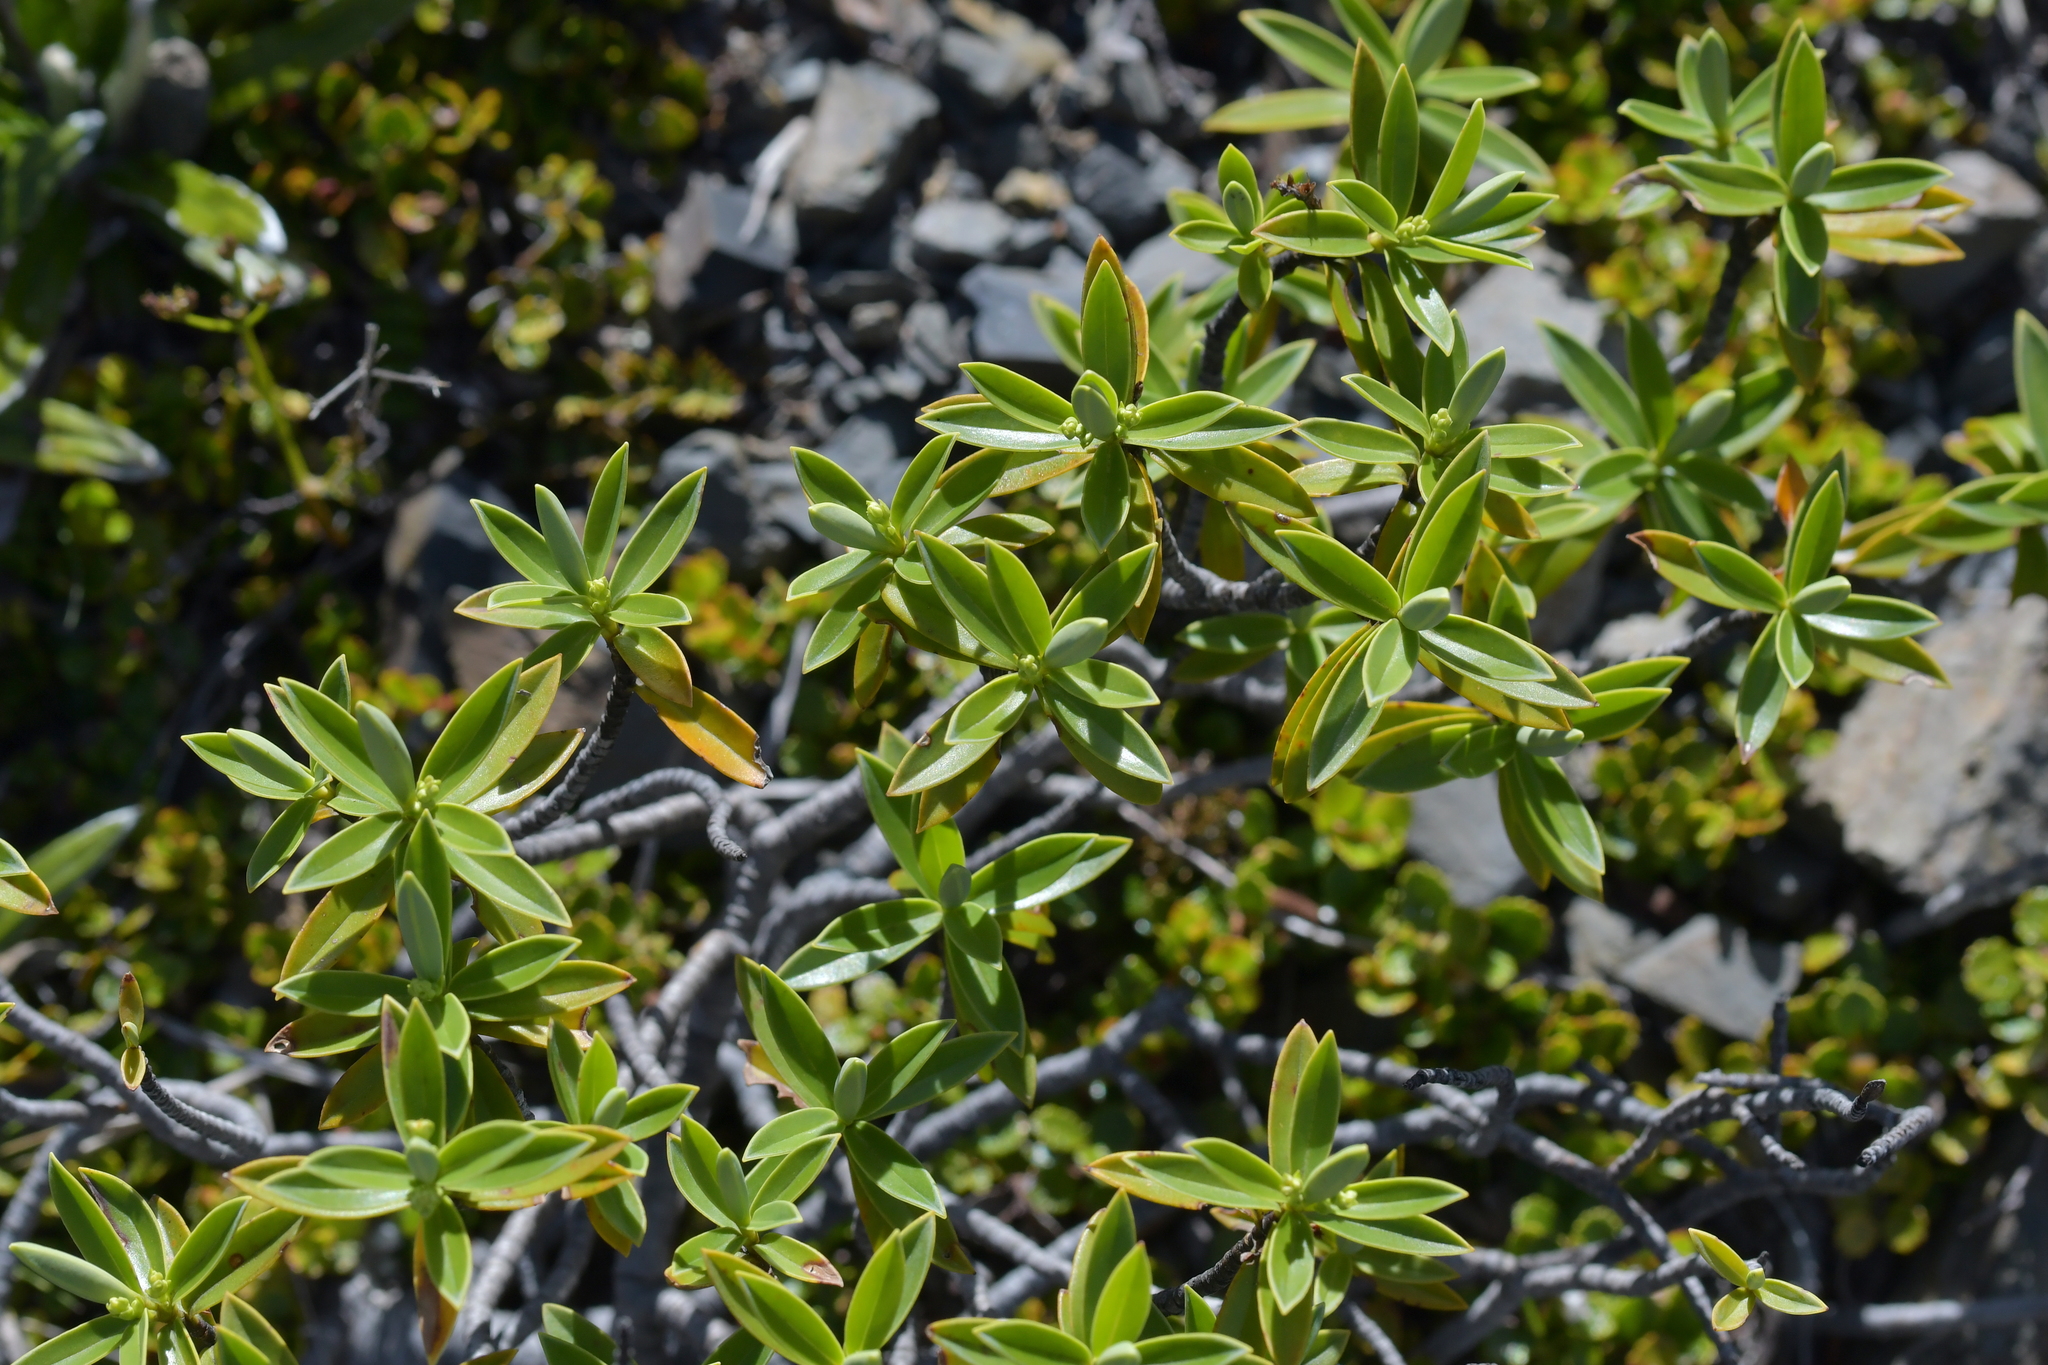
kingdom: Plantae
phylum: Tracheophyta
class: Magnoliopsida
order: Lamiales
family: Plantaginaceae
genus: Veronica
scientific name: Veronica cryptomorpha
